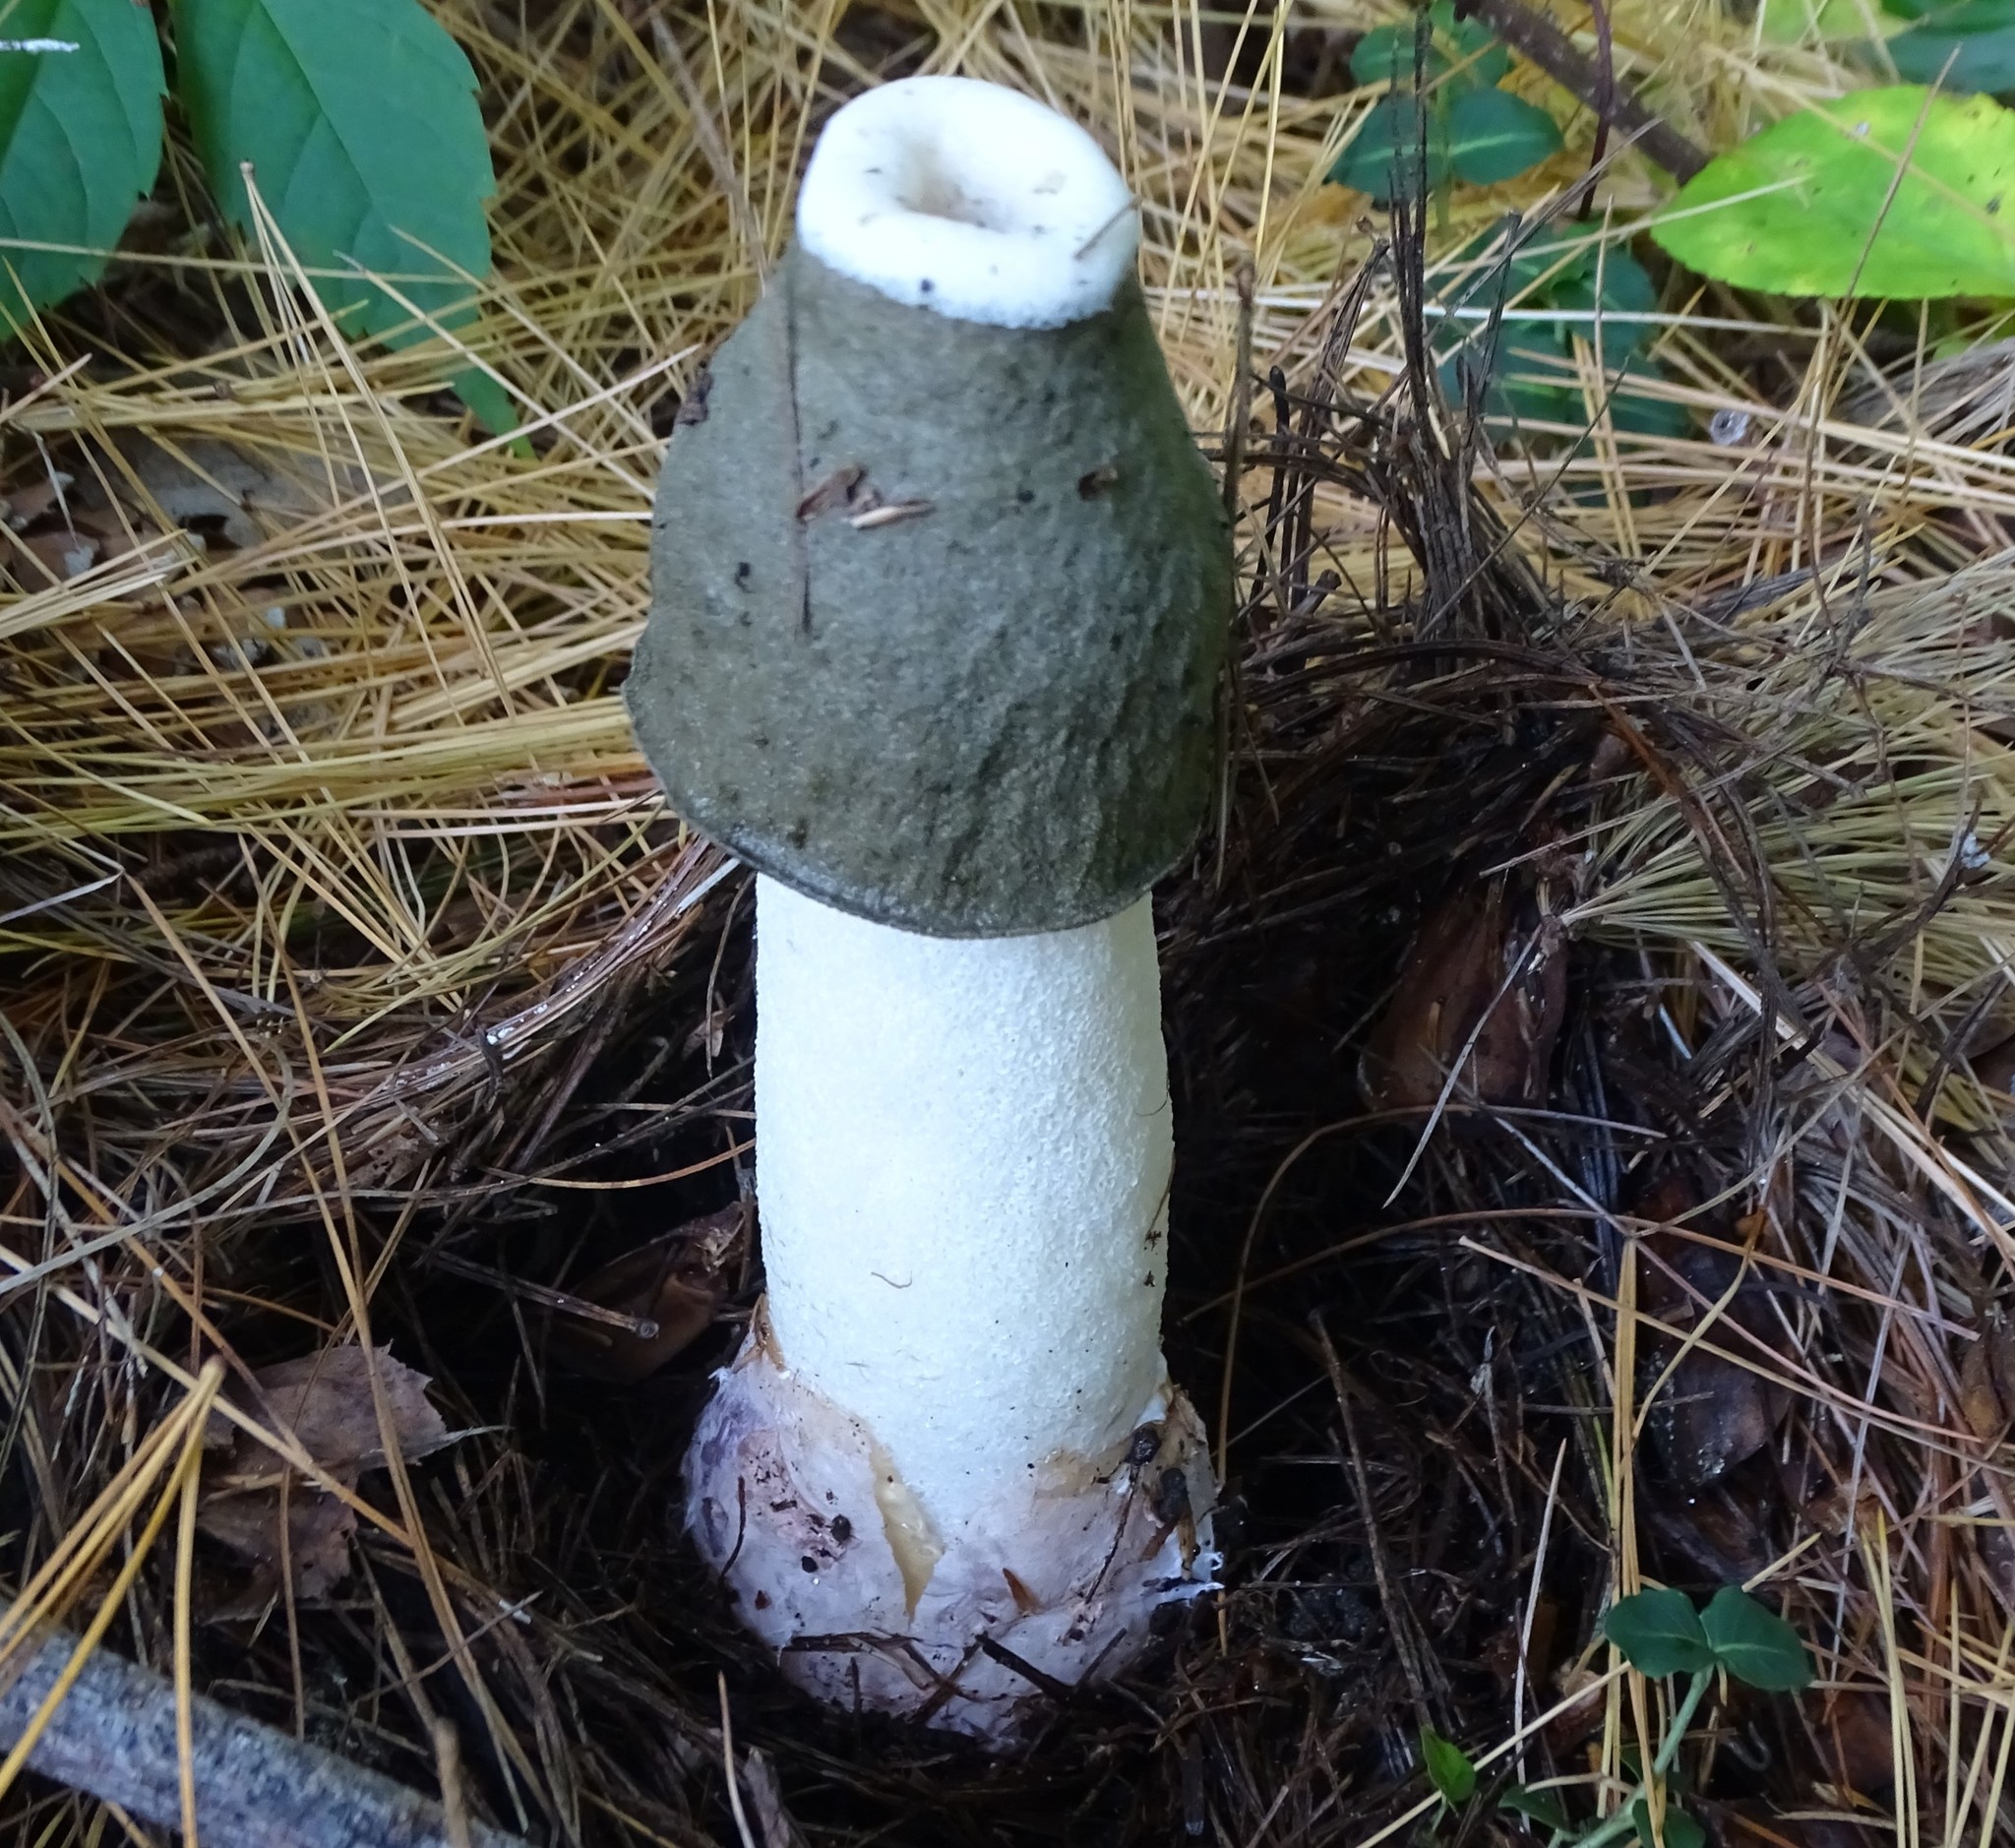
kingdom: Fungi
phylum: Basidiomycota
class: Agaricomycetes
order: Phallales
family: Phallaceae
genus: Phallus
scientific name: Phallus ravenelii
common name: Ravenel's stinkhorn
